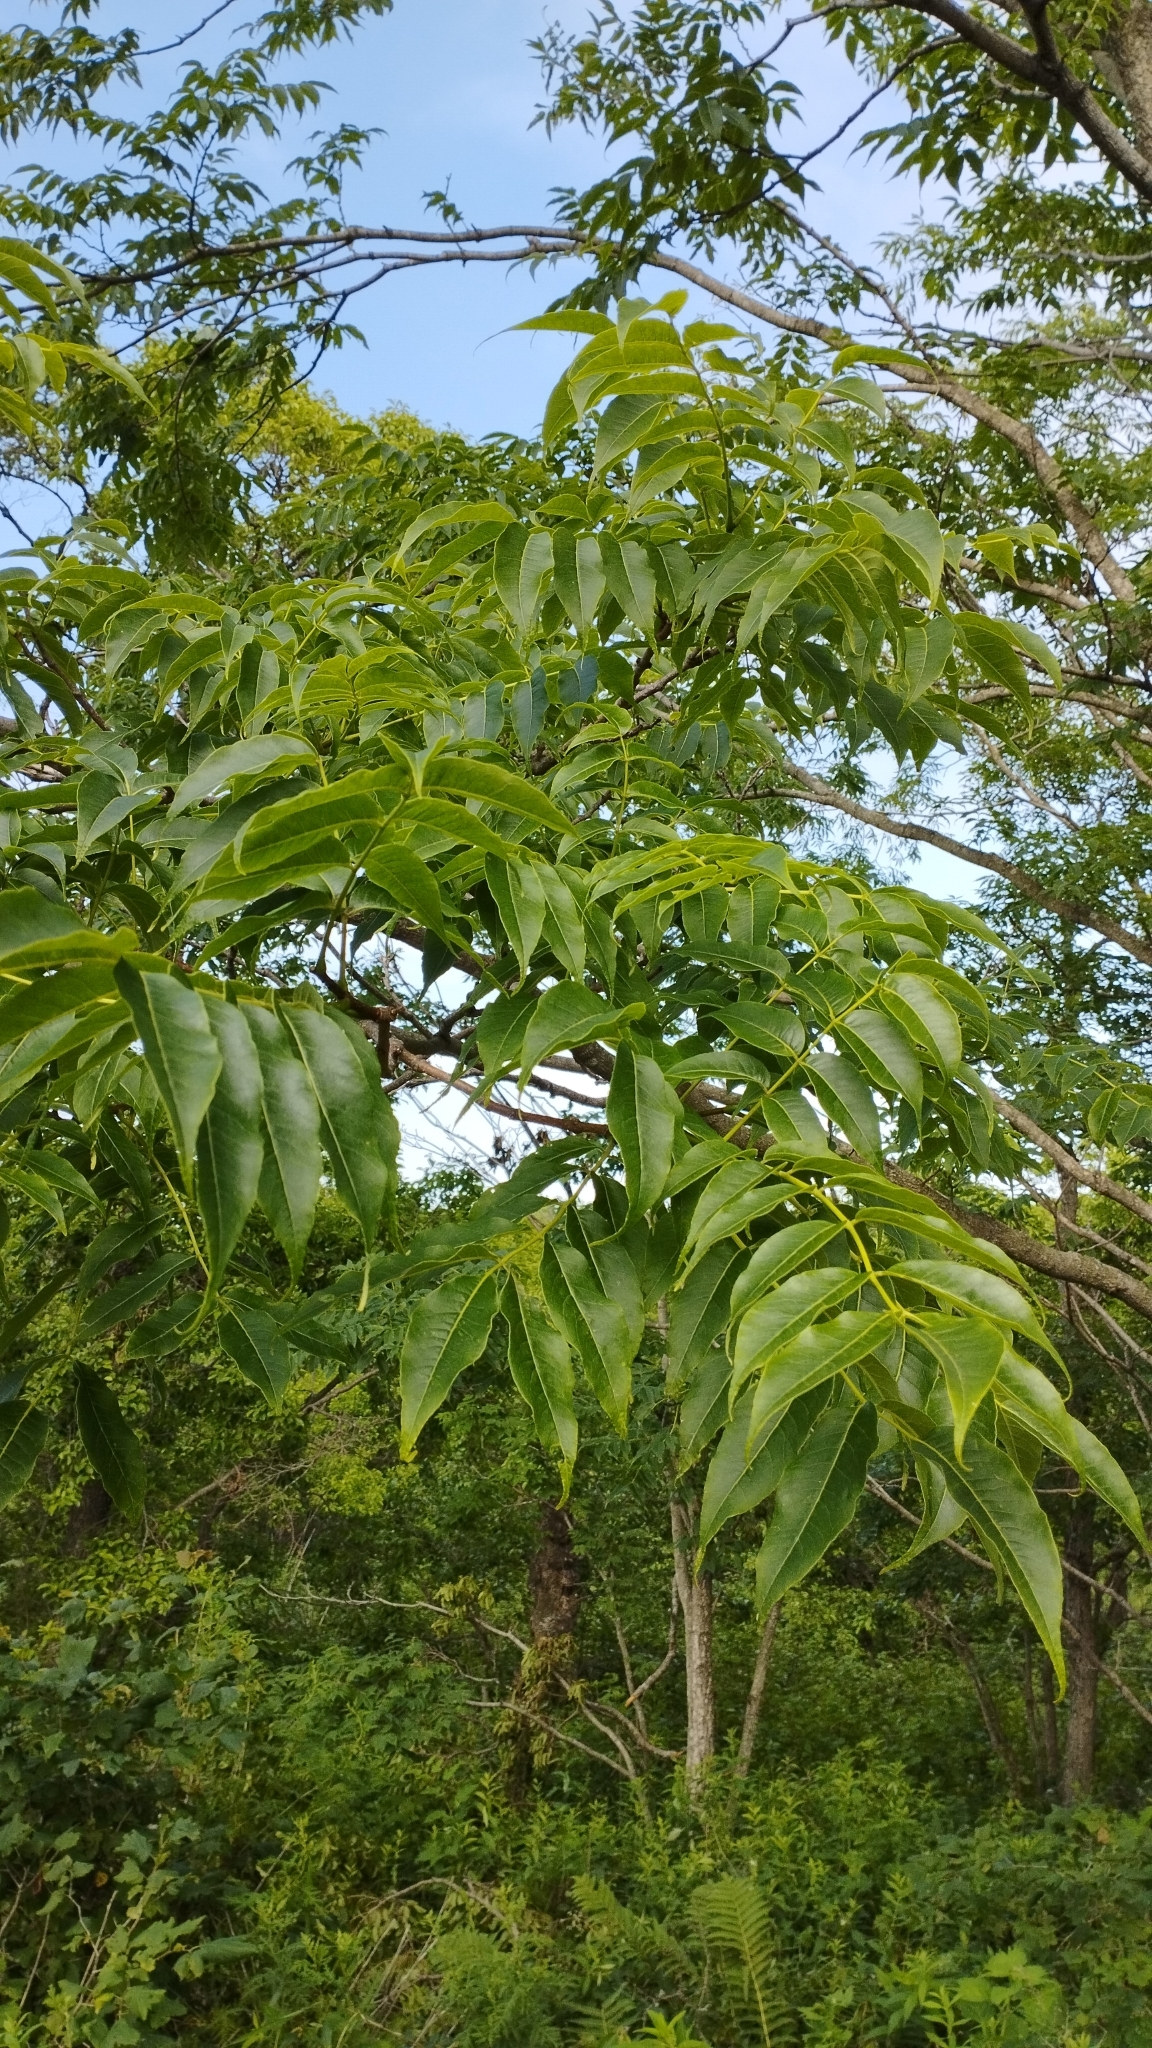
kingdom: Plantae
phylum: Tracheophyta
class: Magnoliopsida
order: Sapindales
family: Rutaceae
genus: Phellodendron
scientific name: Phellodendron amurense
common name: Amur corktree
